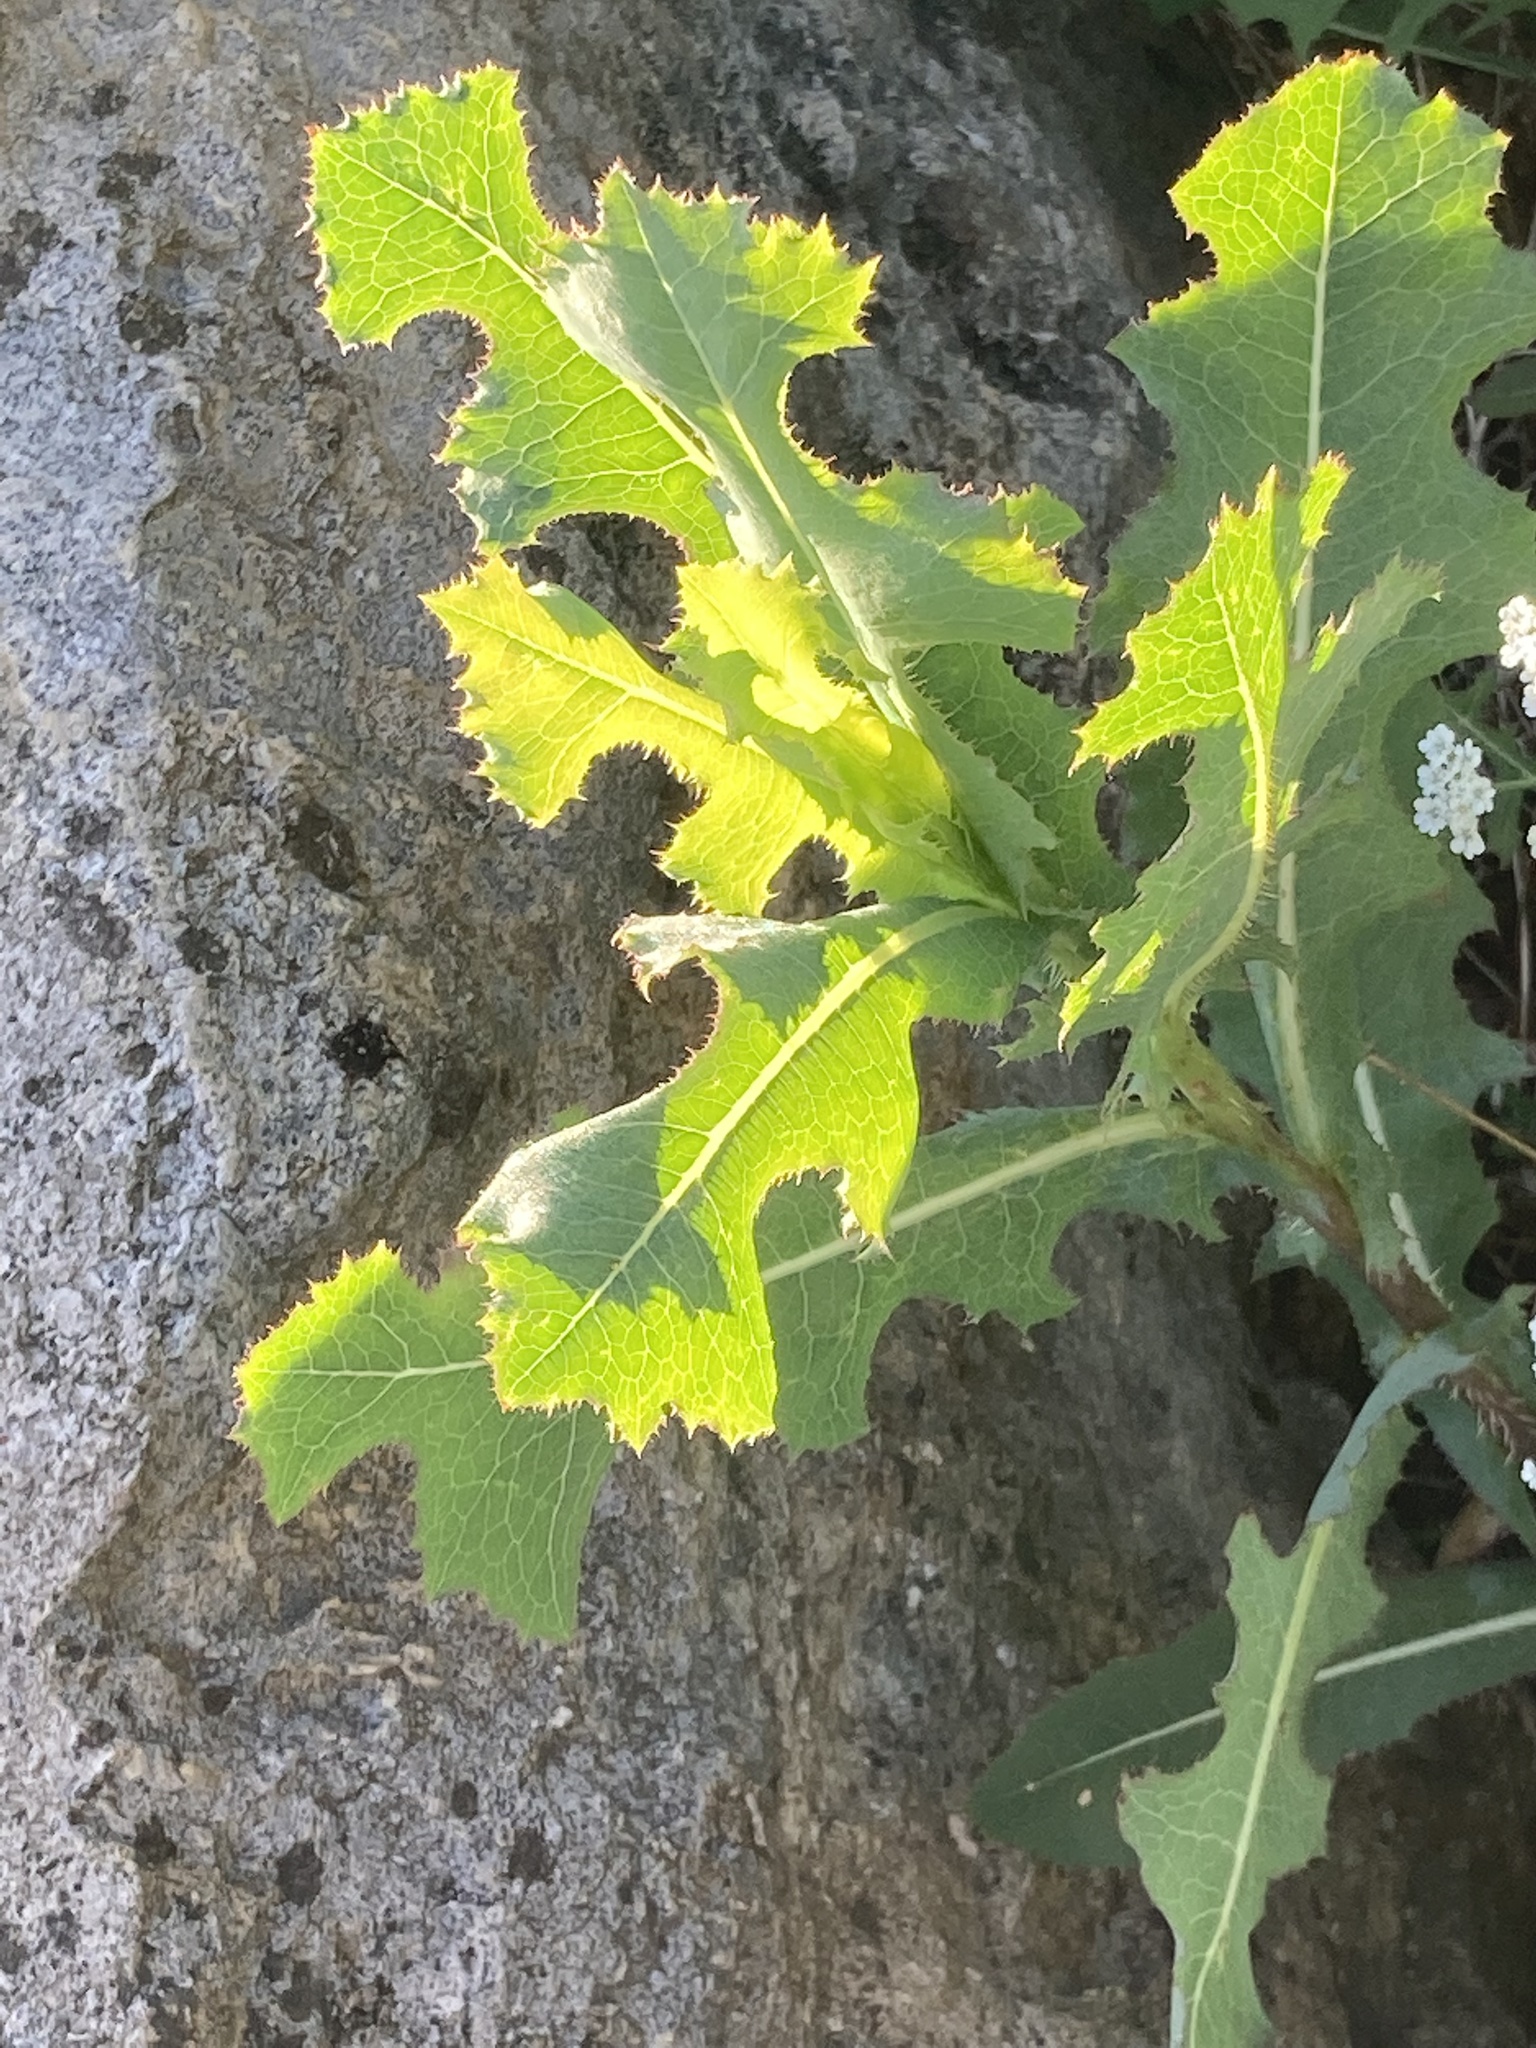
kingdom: Plantae
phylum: Tracheophyta
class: Magnoliopsida
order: Asterales
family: Asteraceae
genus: Lactuca
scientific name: Lactuca serriola
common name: Prickly lettuce
